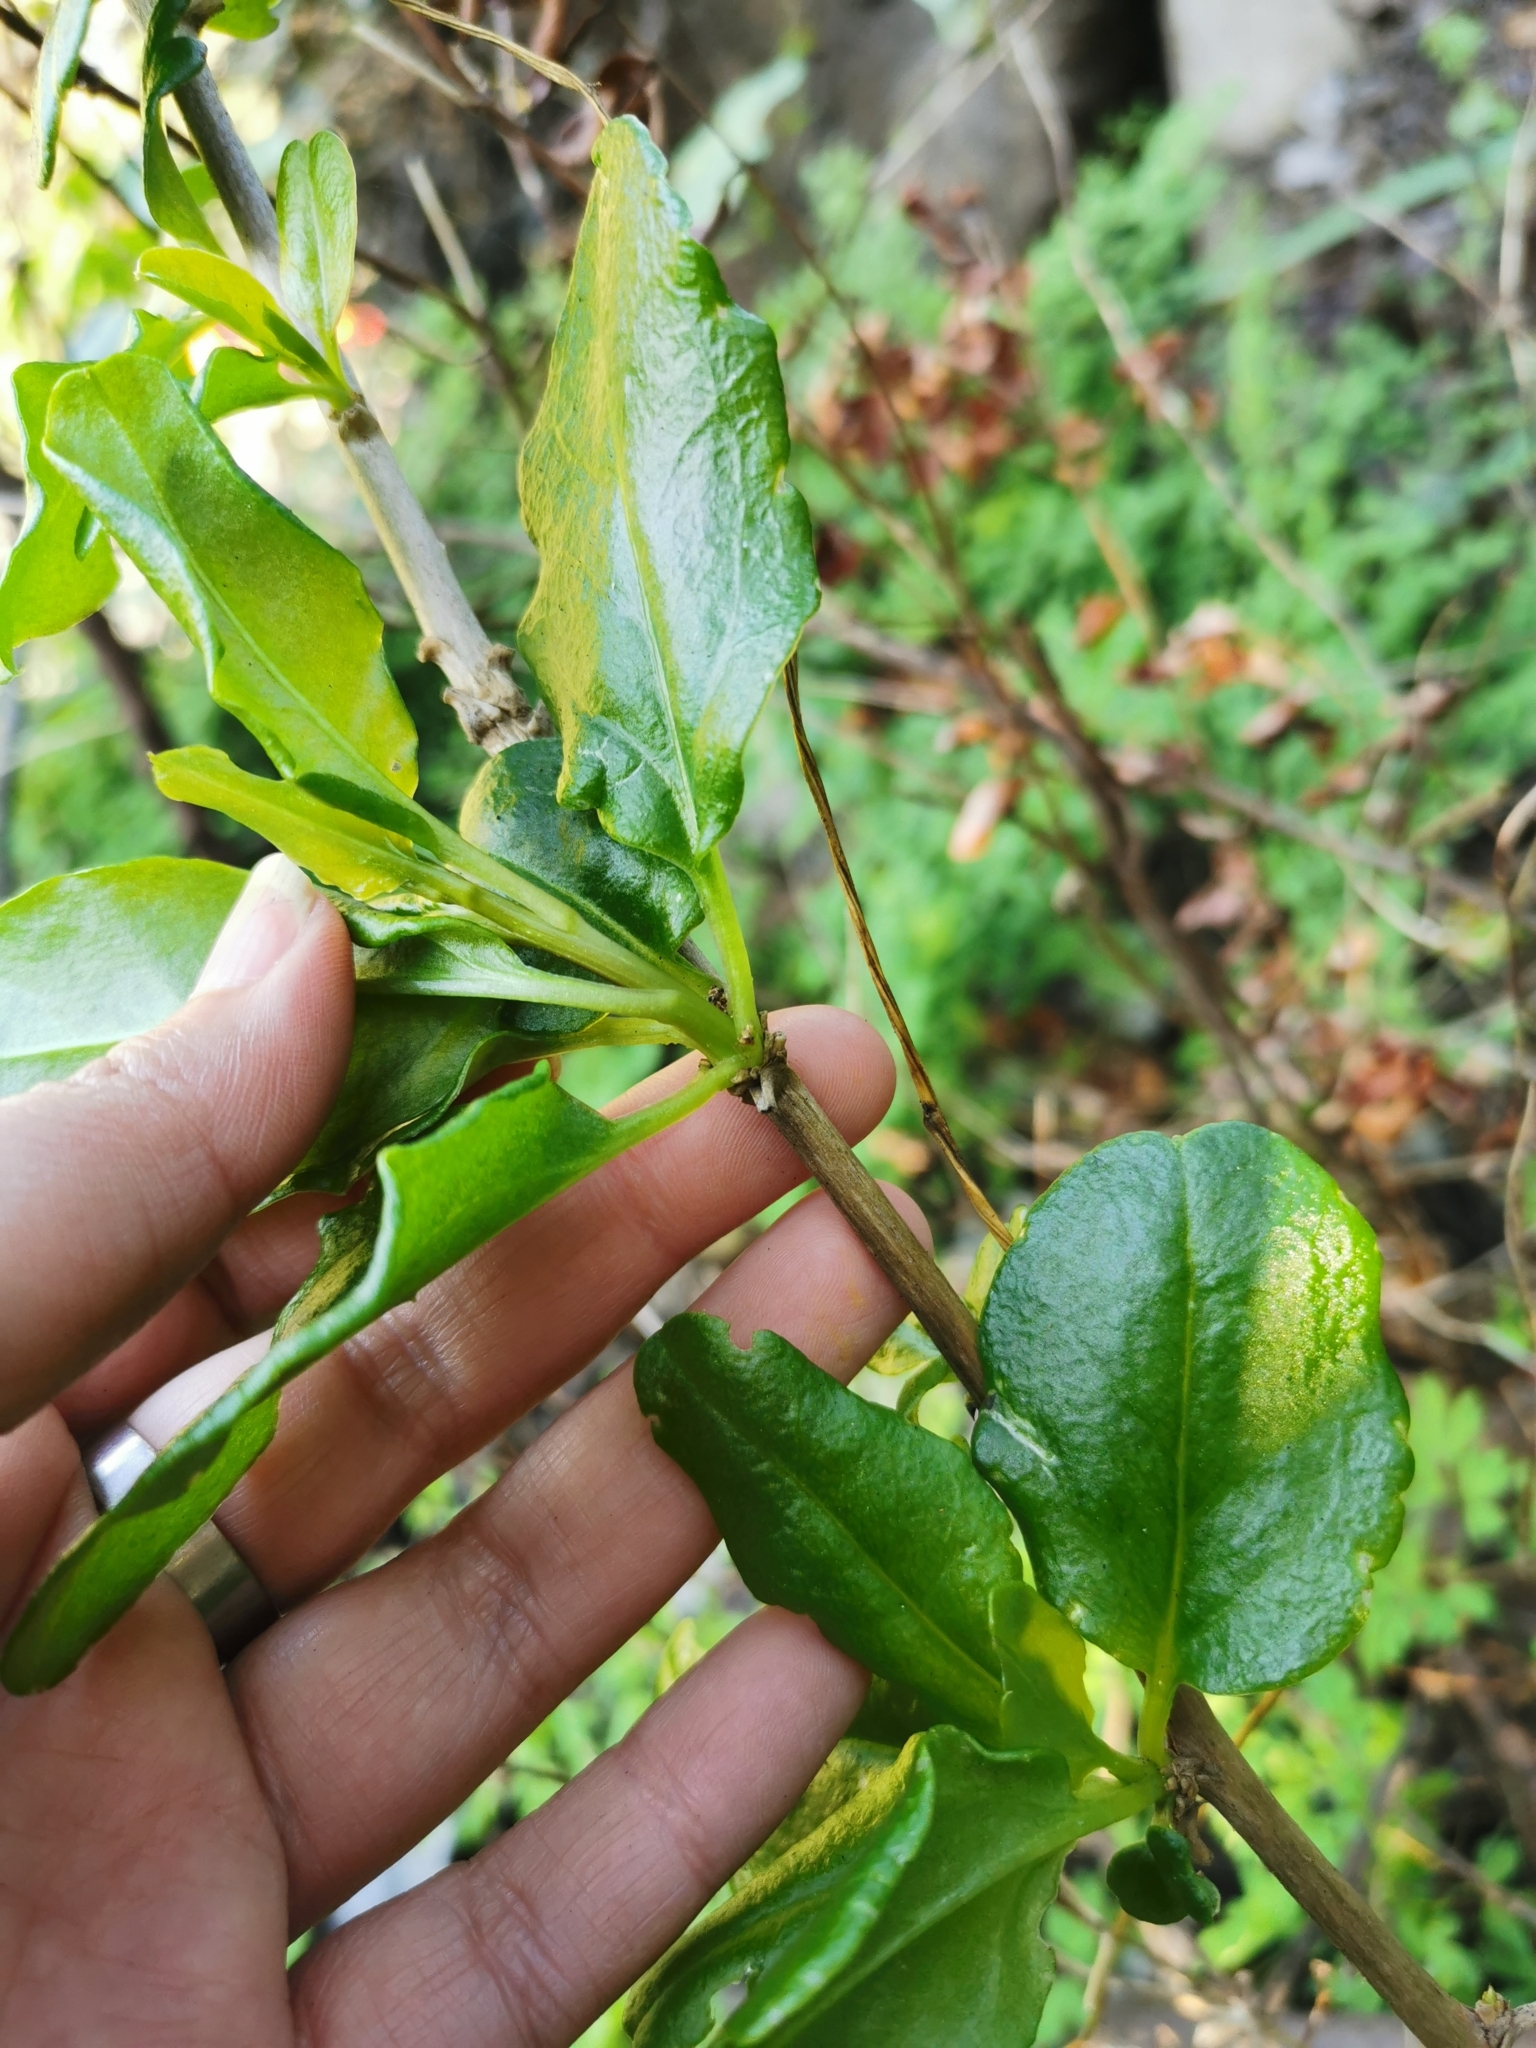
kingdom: Plantae
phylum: Tracheophyta
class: Magnoliopsida
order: Caryophyllales
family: Phytolaccaceae
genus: Anisomeria
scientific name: Anisomeria littoralis
